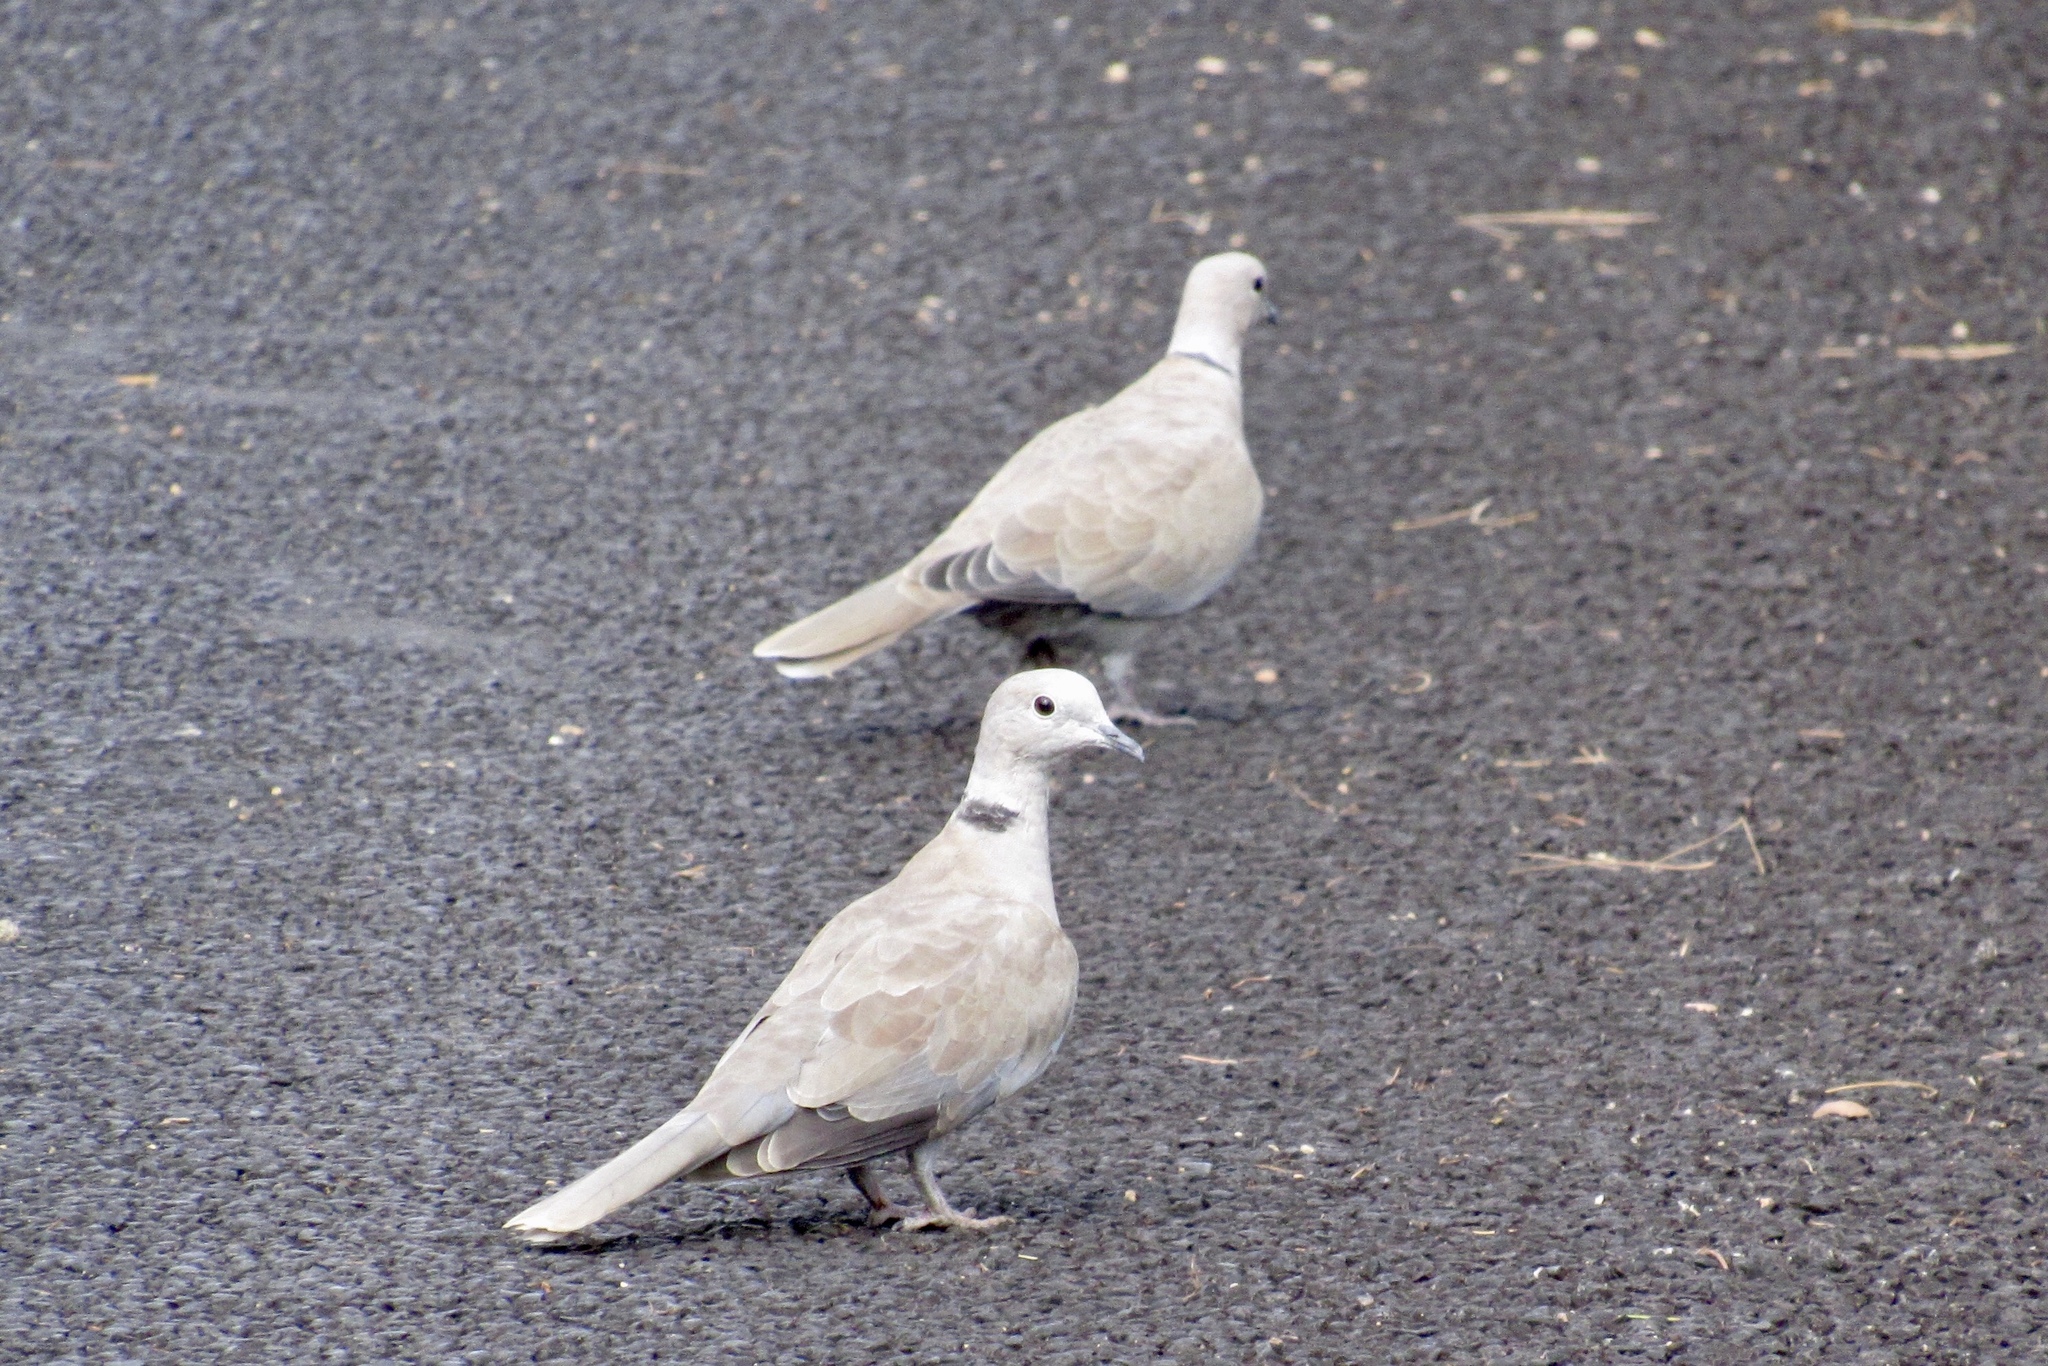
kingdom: Animalia
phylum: Chordata
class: Aves
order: Columbiformes
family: Columbidae
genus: Streptopelia
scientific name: Streptopelia decaocto
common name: Eurasian collared dove
